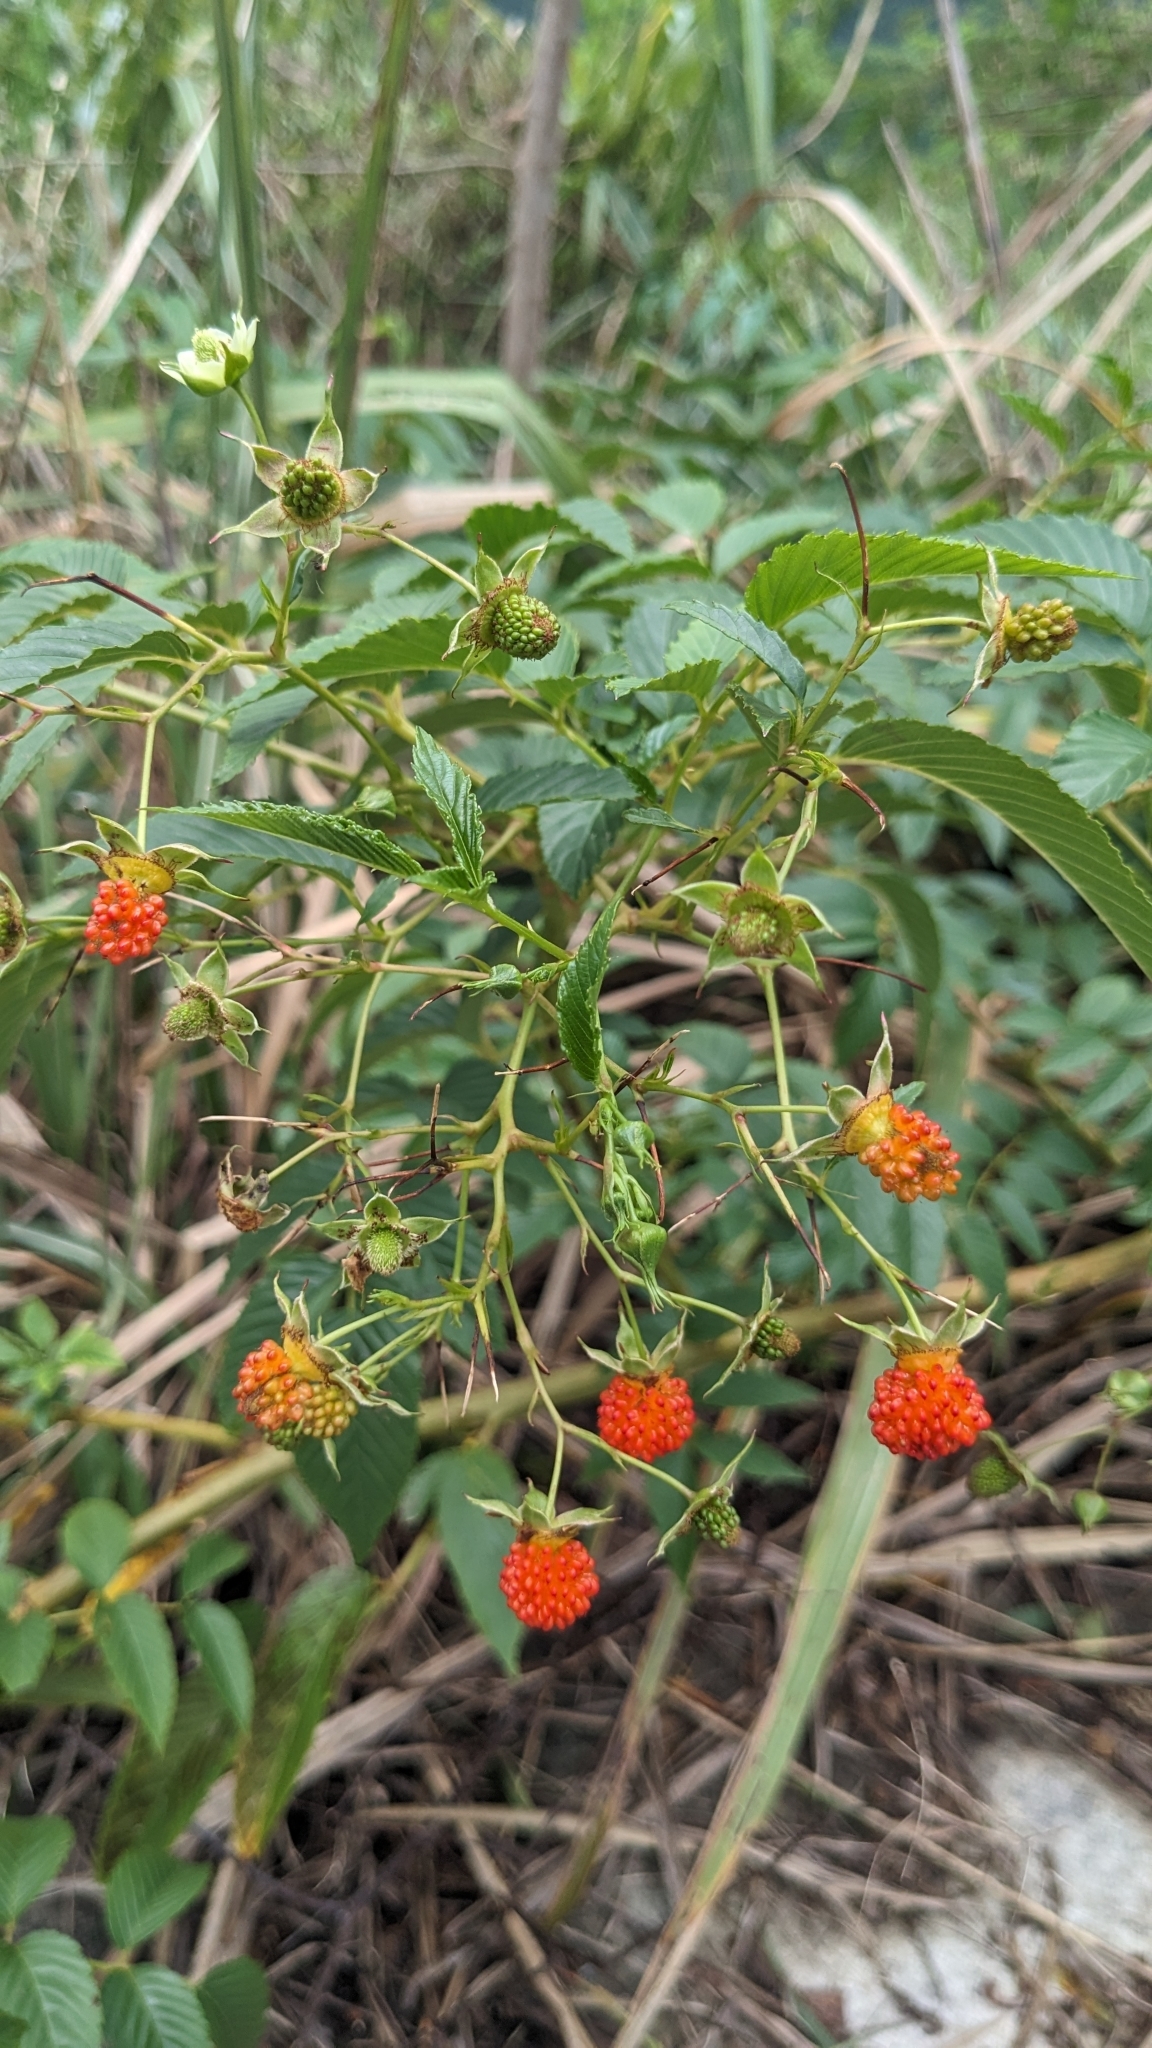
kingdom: Plantae
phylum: Tracheophyta
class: Magnoliopsida
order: Rosales
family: Rosaceae
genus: Rubus
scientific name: Rubus fraxinifolius
